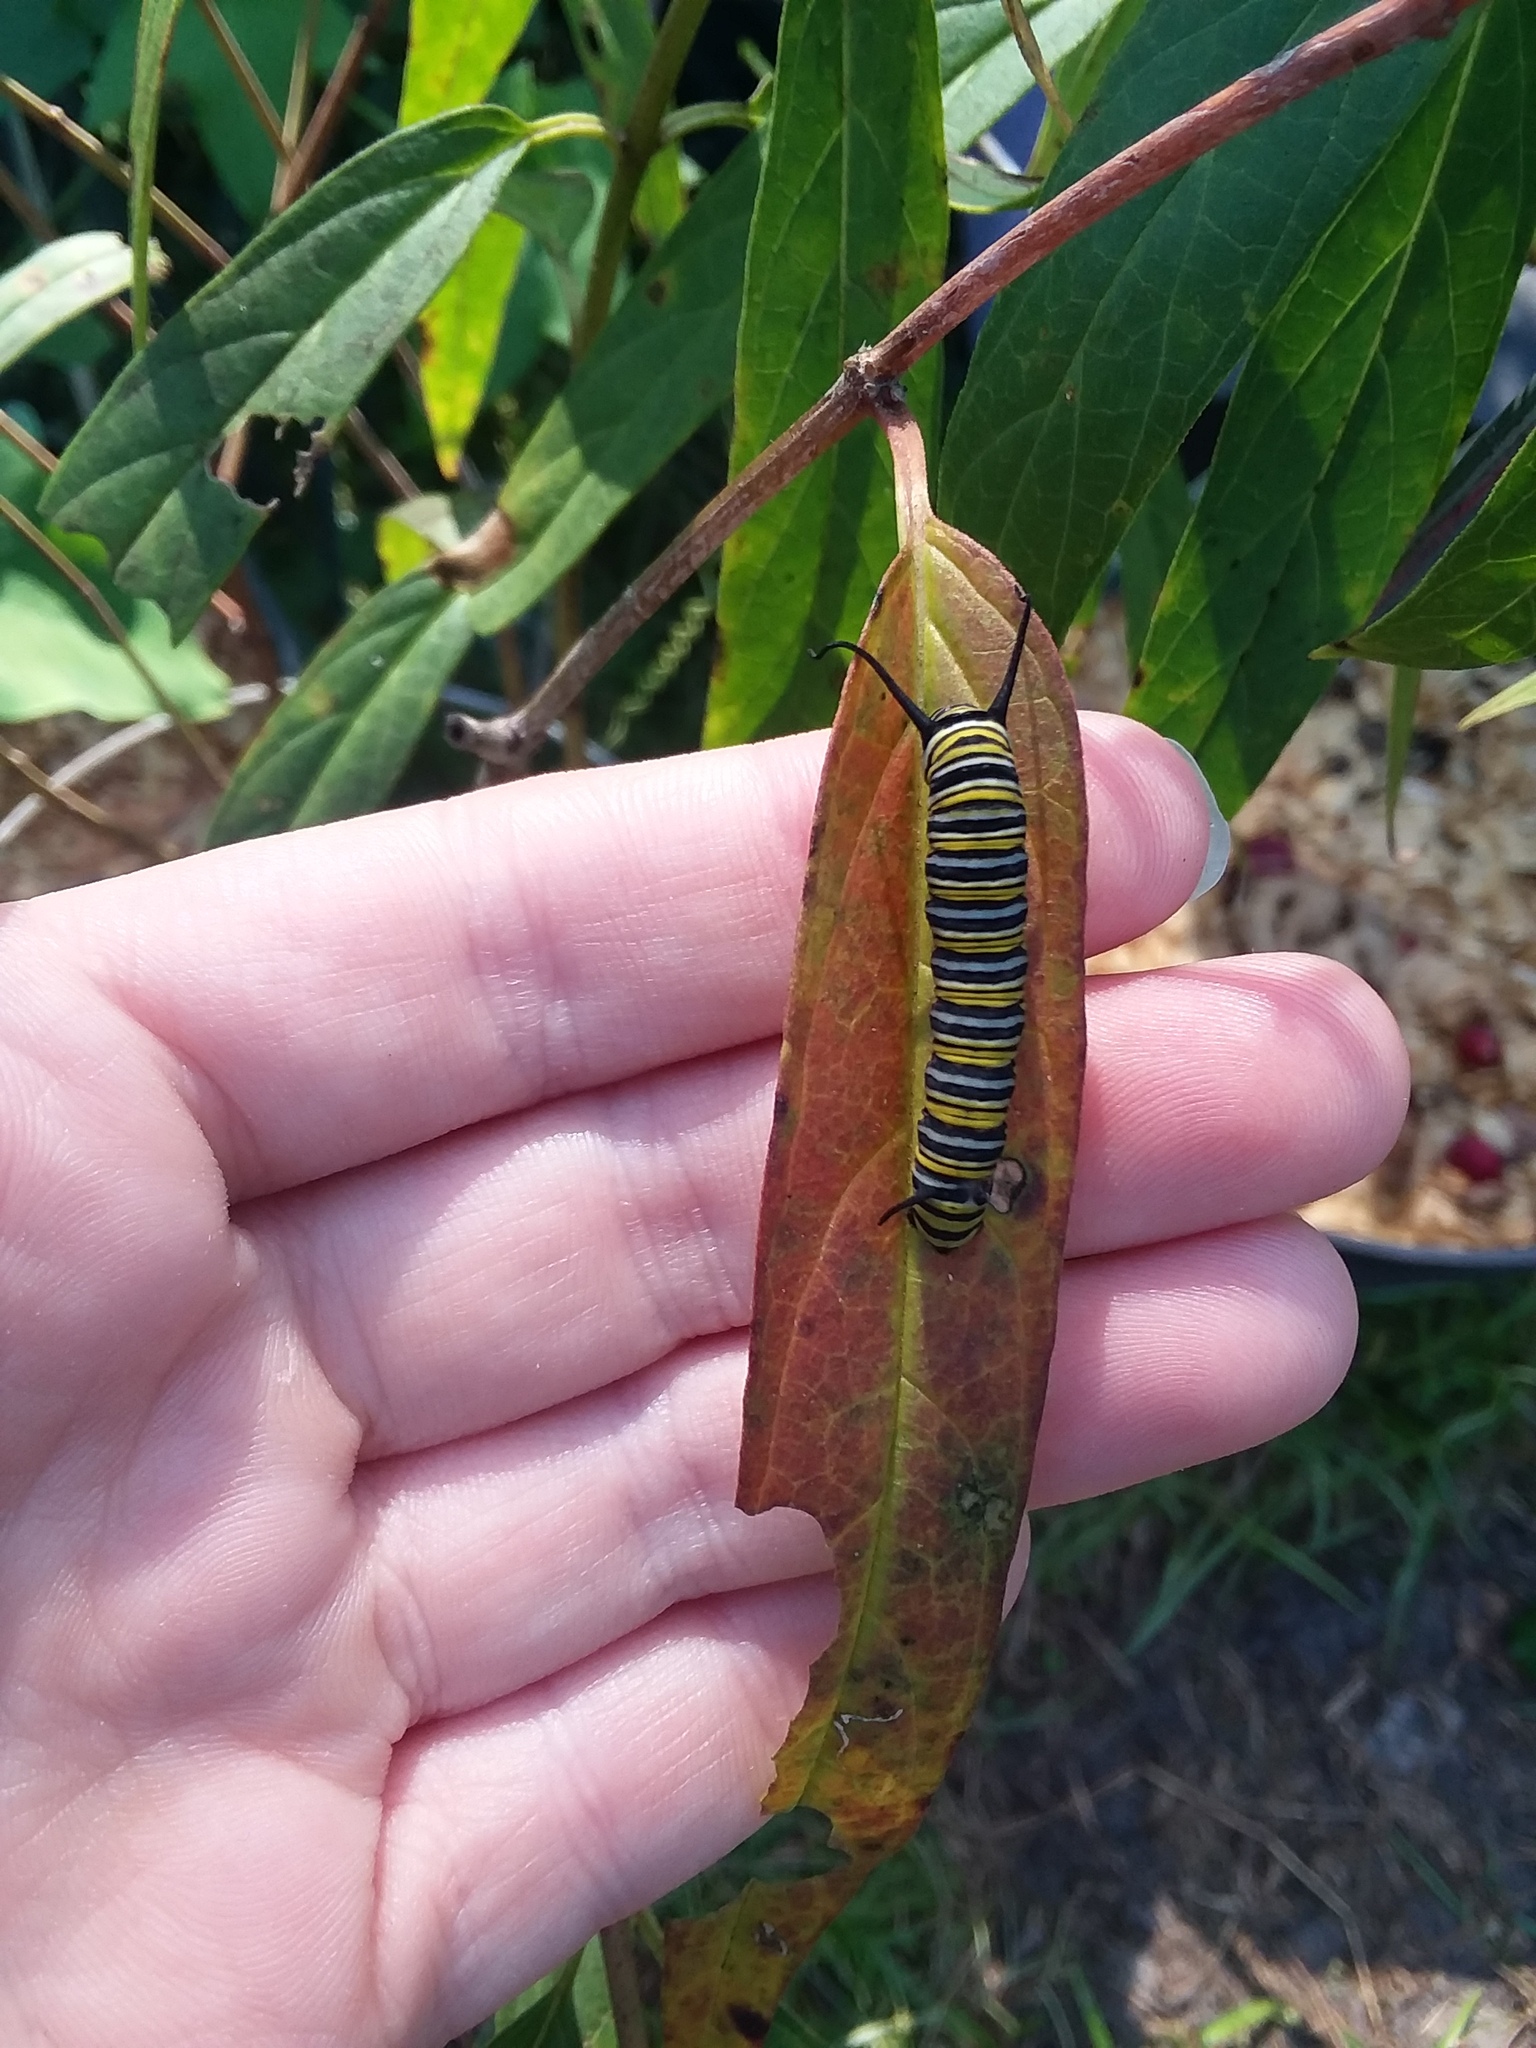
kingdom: Animalia
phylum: Arthropoda
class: Insecta
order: Lepidoptera
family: Nymphalidae
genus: Danaus
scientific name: Danaus plexippus
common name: Monarch
